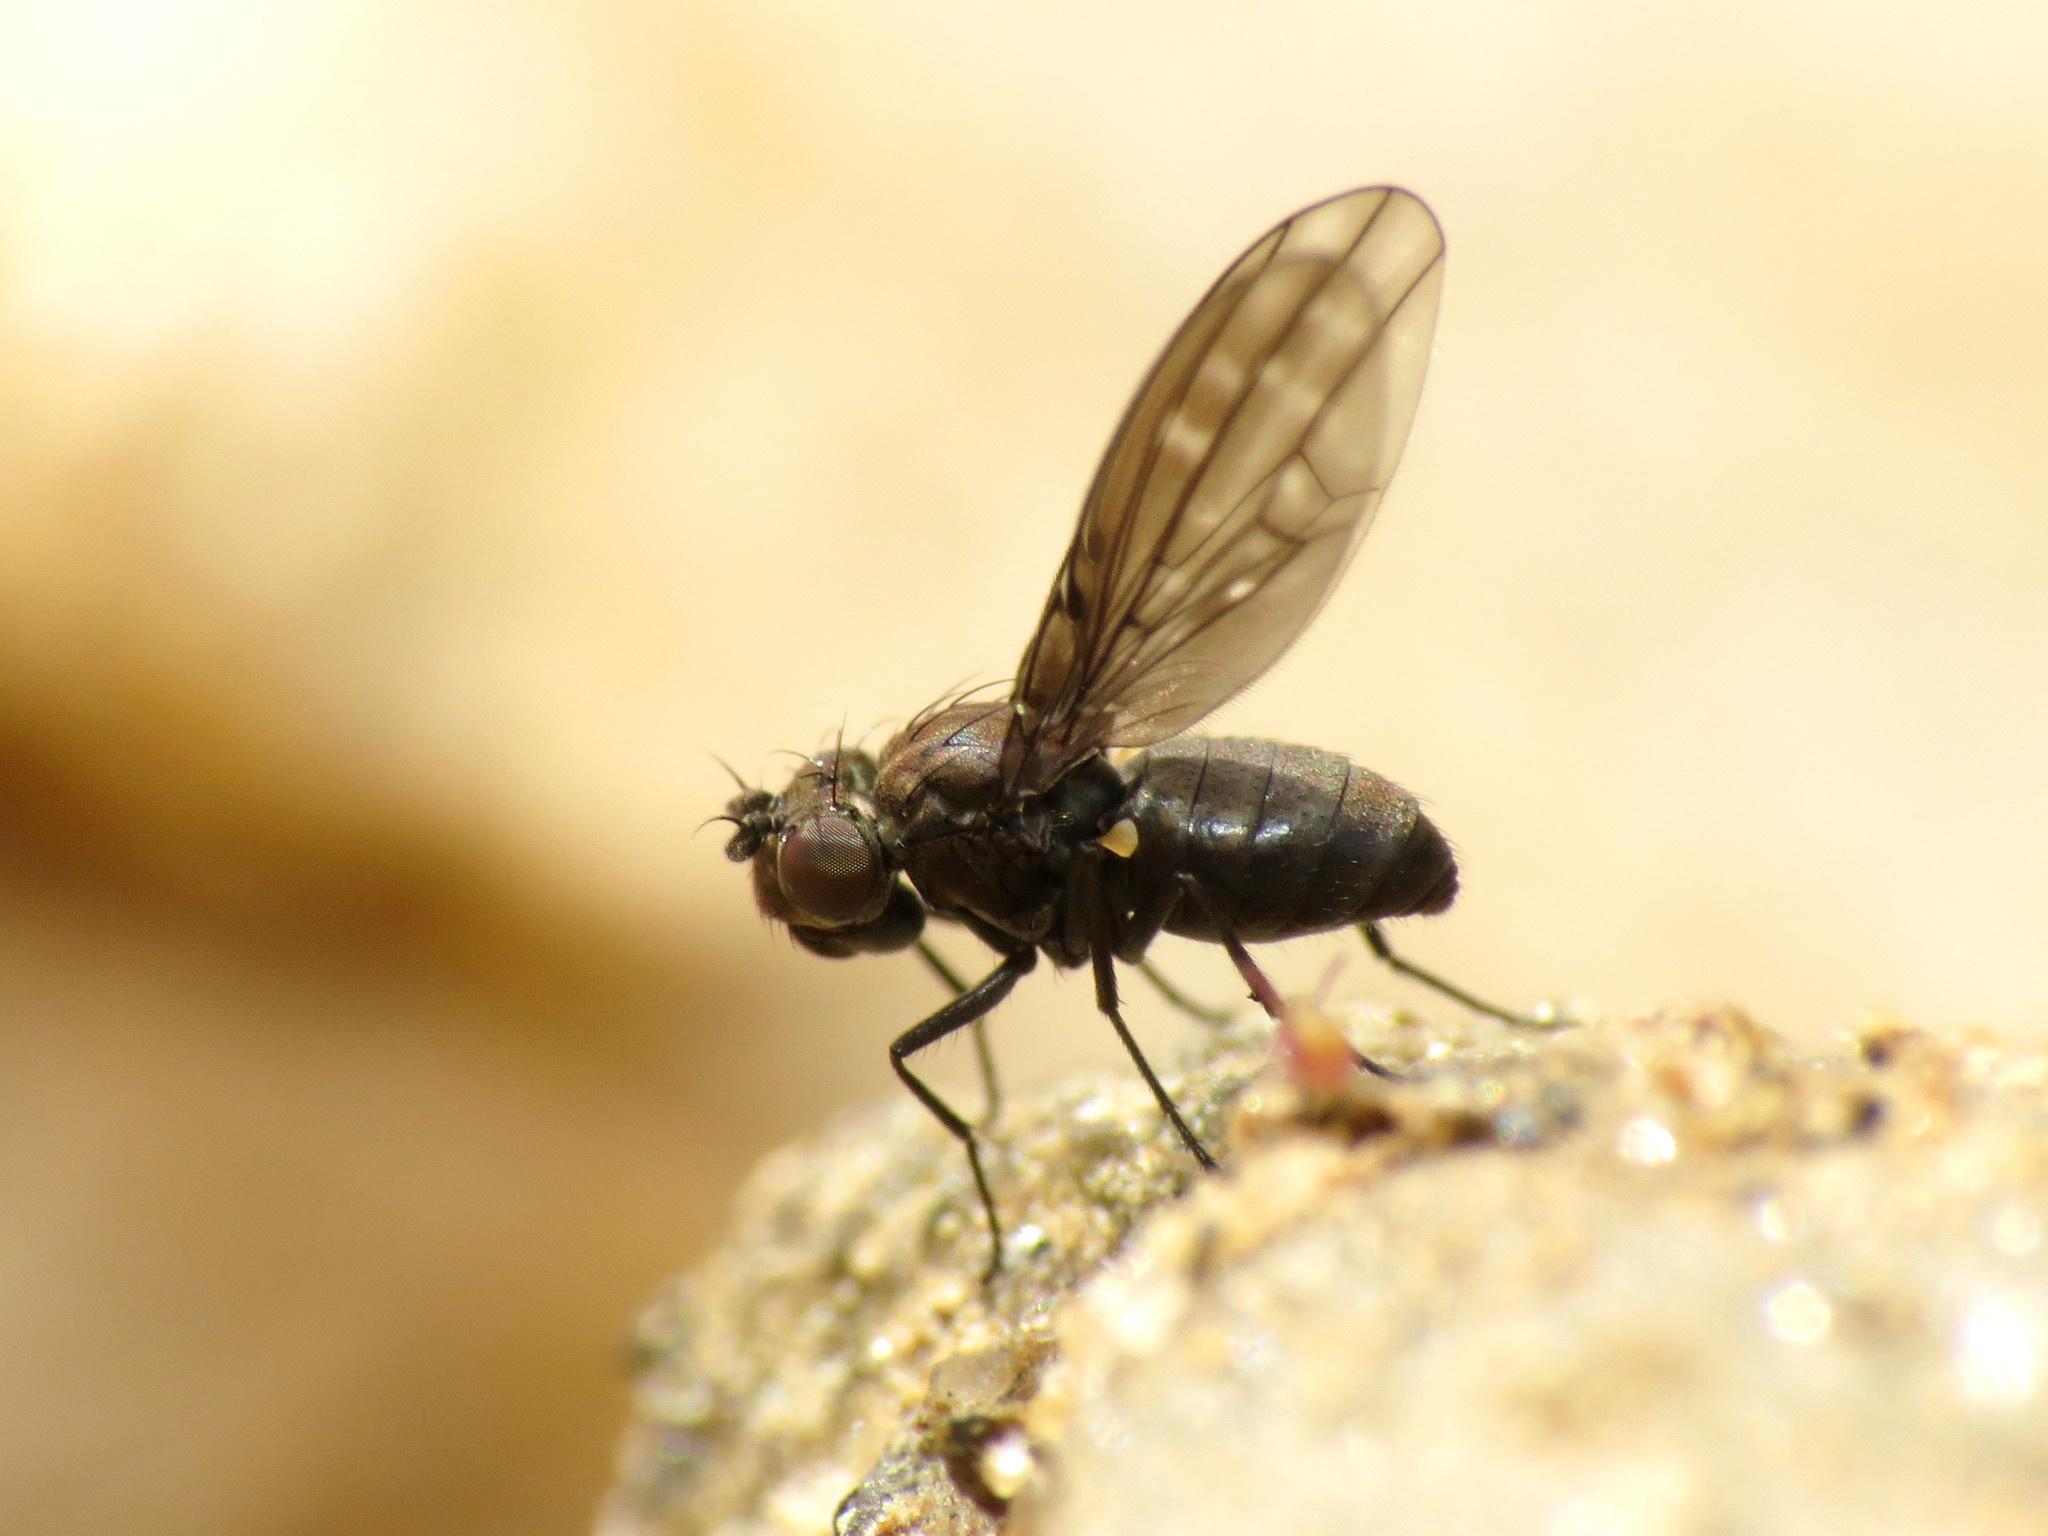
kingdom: Animalia
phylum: Arthropoda
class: Insecta
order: Diptera
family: Ephydridae
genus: Scatella
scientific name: Scatella stagnalis
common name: Shore fly
